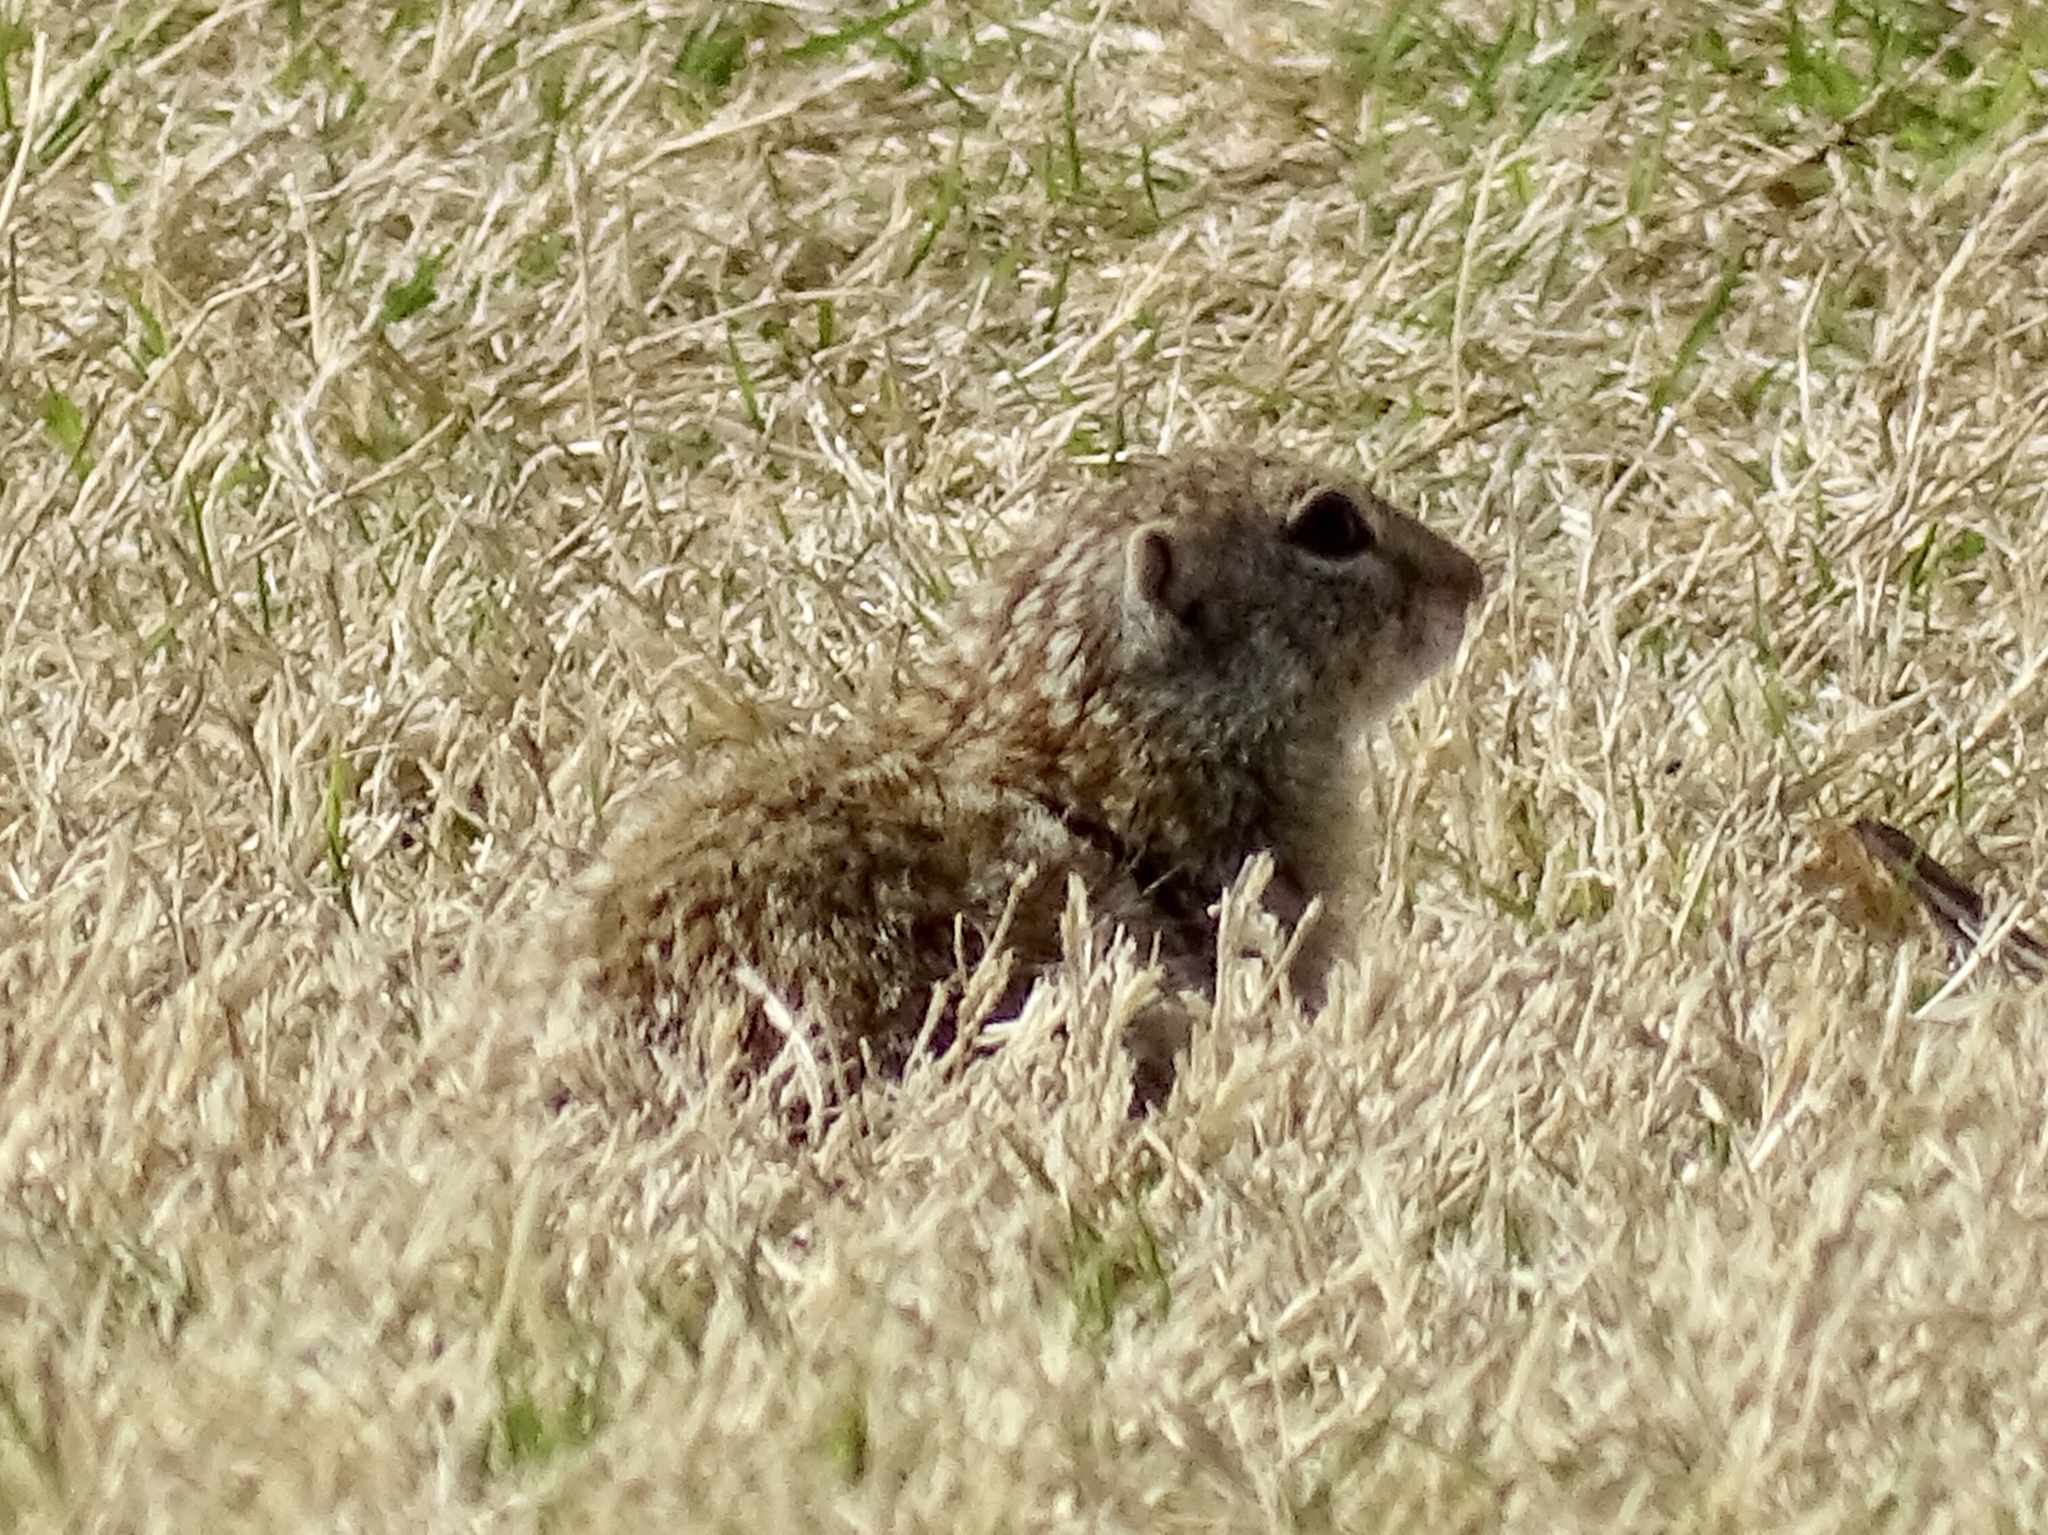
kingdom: Animalia
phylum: Chordata
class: Mammalia
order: Rodentia
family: Sciuridae
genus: Ictidomys
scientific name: Ictidomys parvidens
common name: Rio grande ground squirrel
